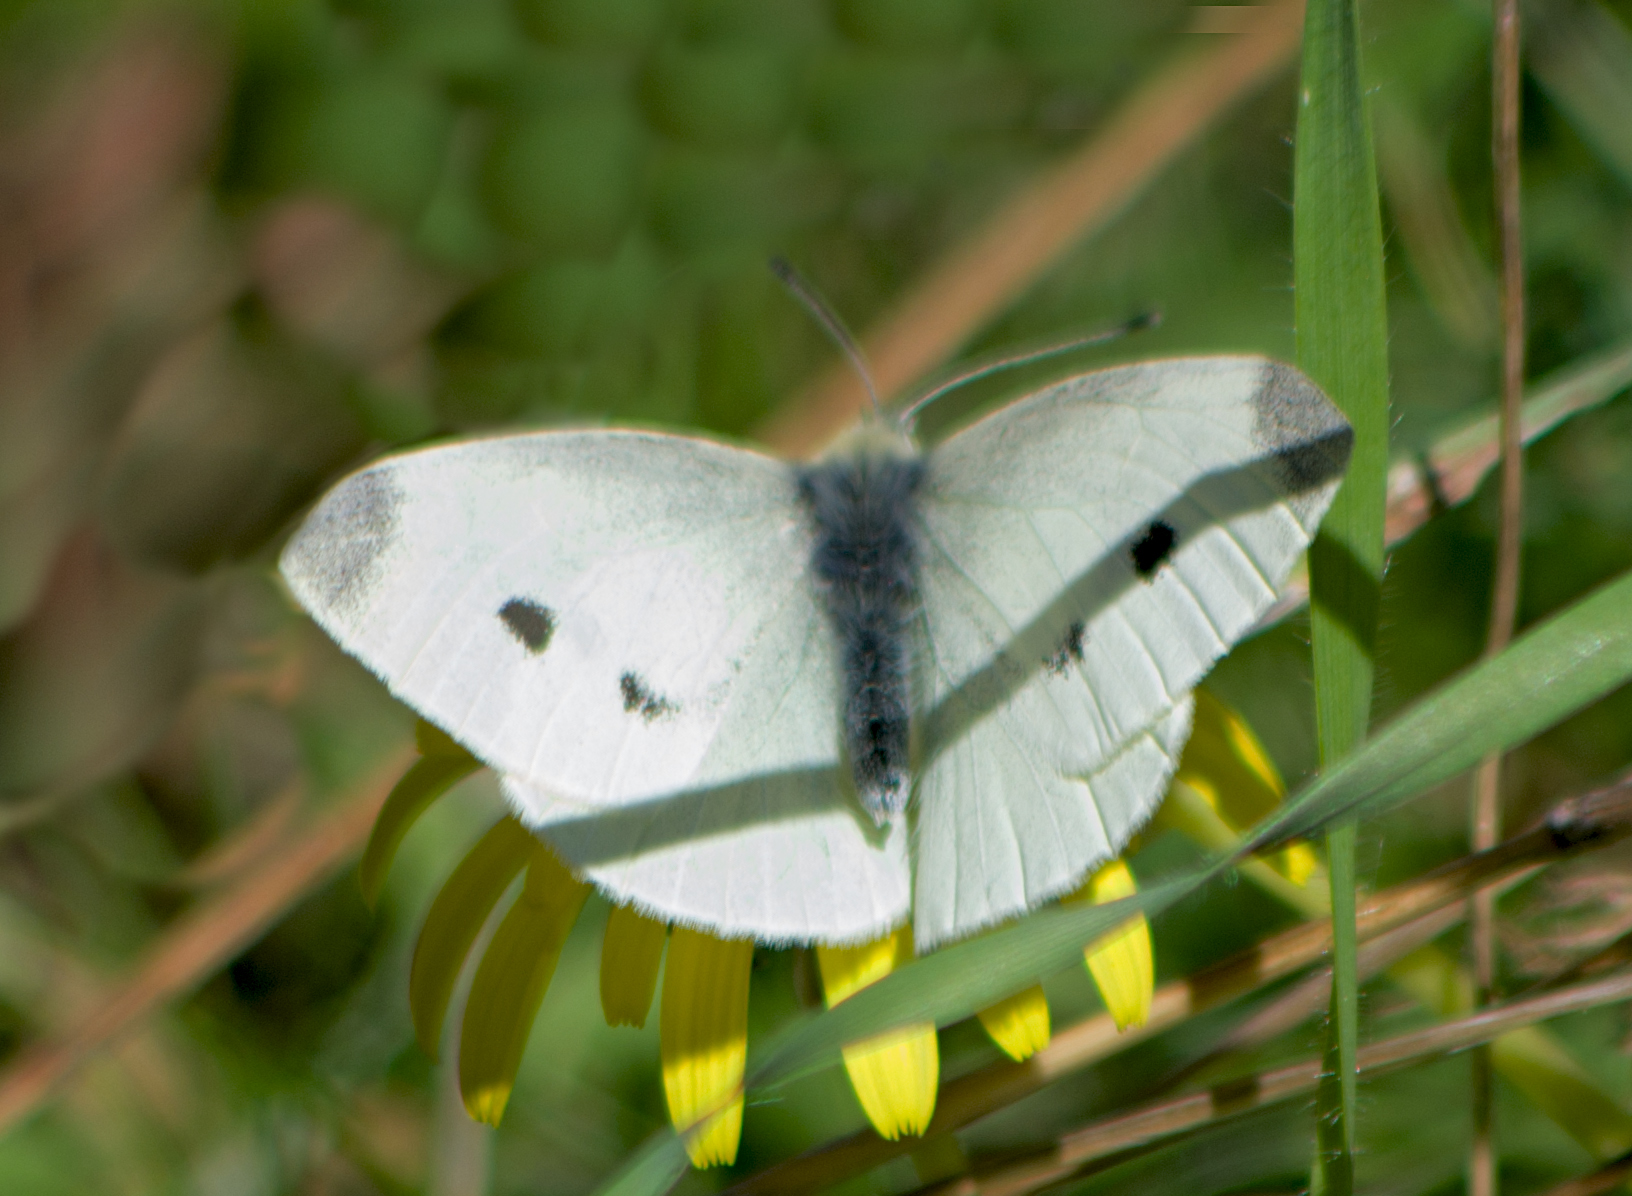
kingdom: Animalia
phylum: Arthropoda
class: Insecta
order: Lepidoptera
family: Pieridae
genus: Pieris
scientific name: Pieris rapae
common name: Small white
